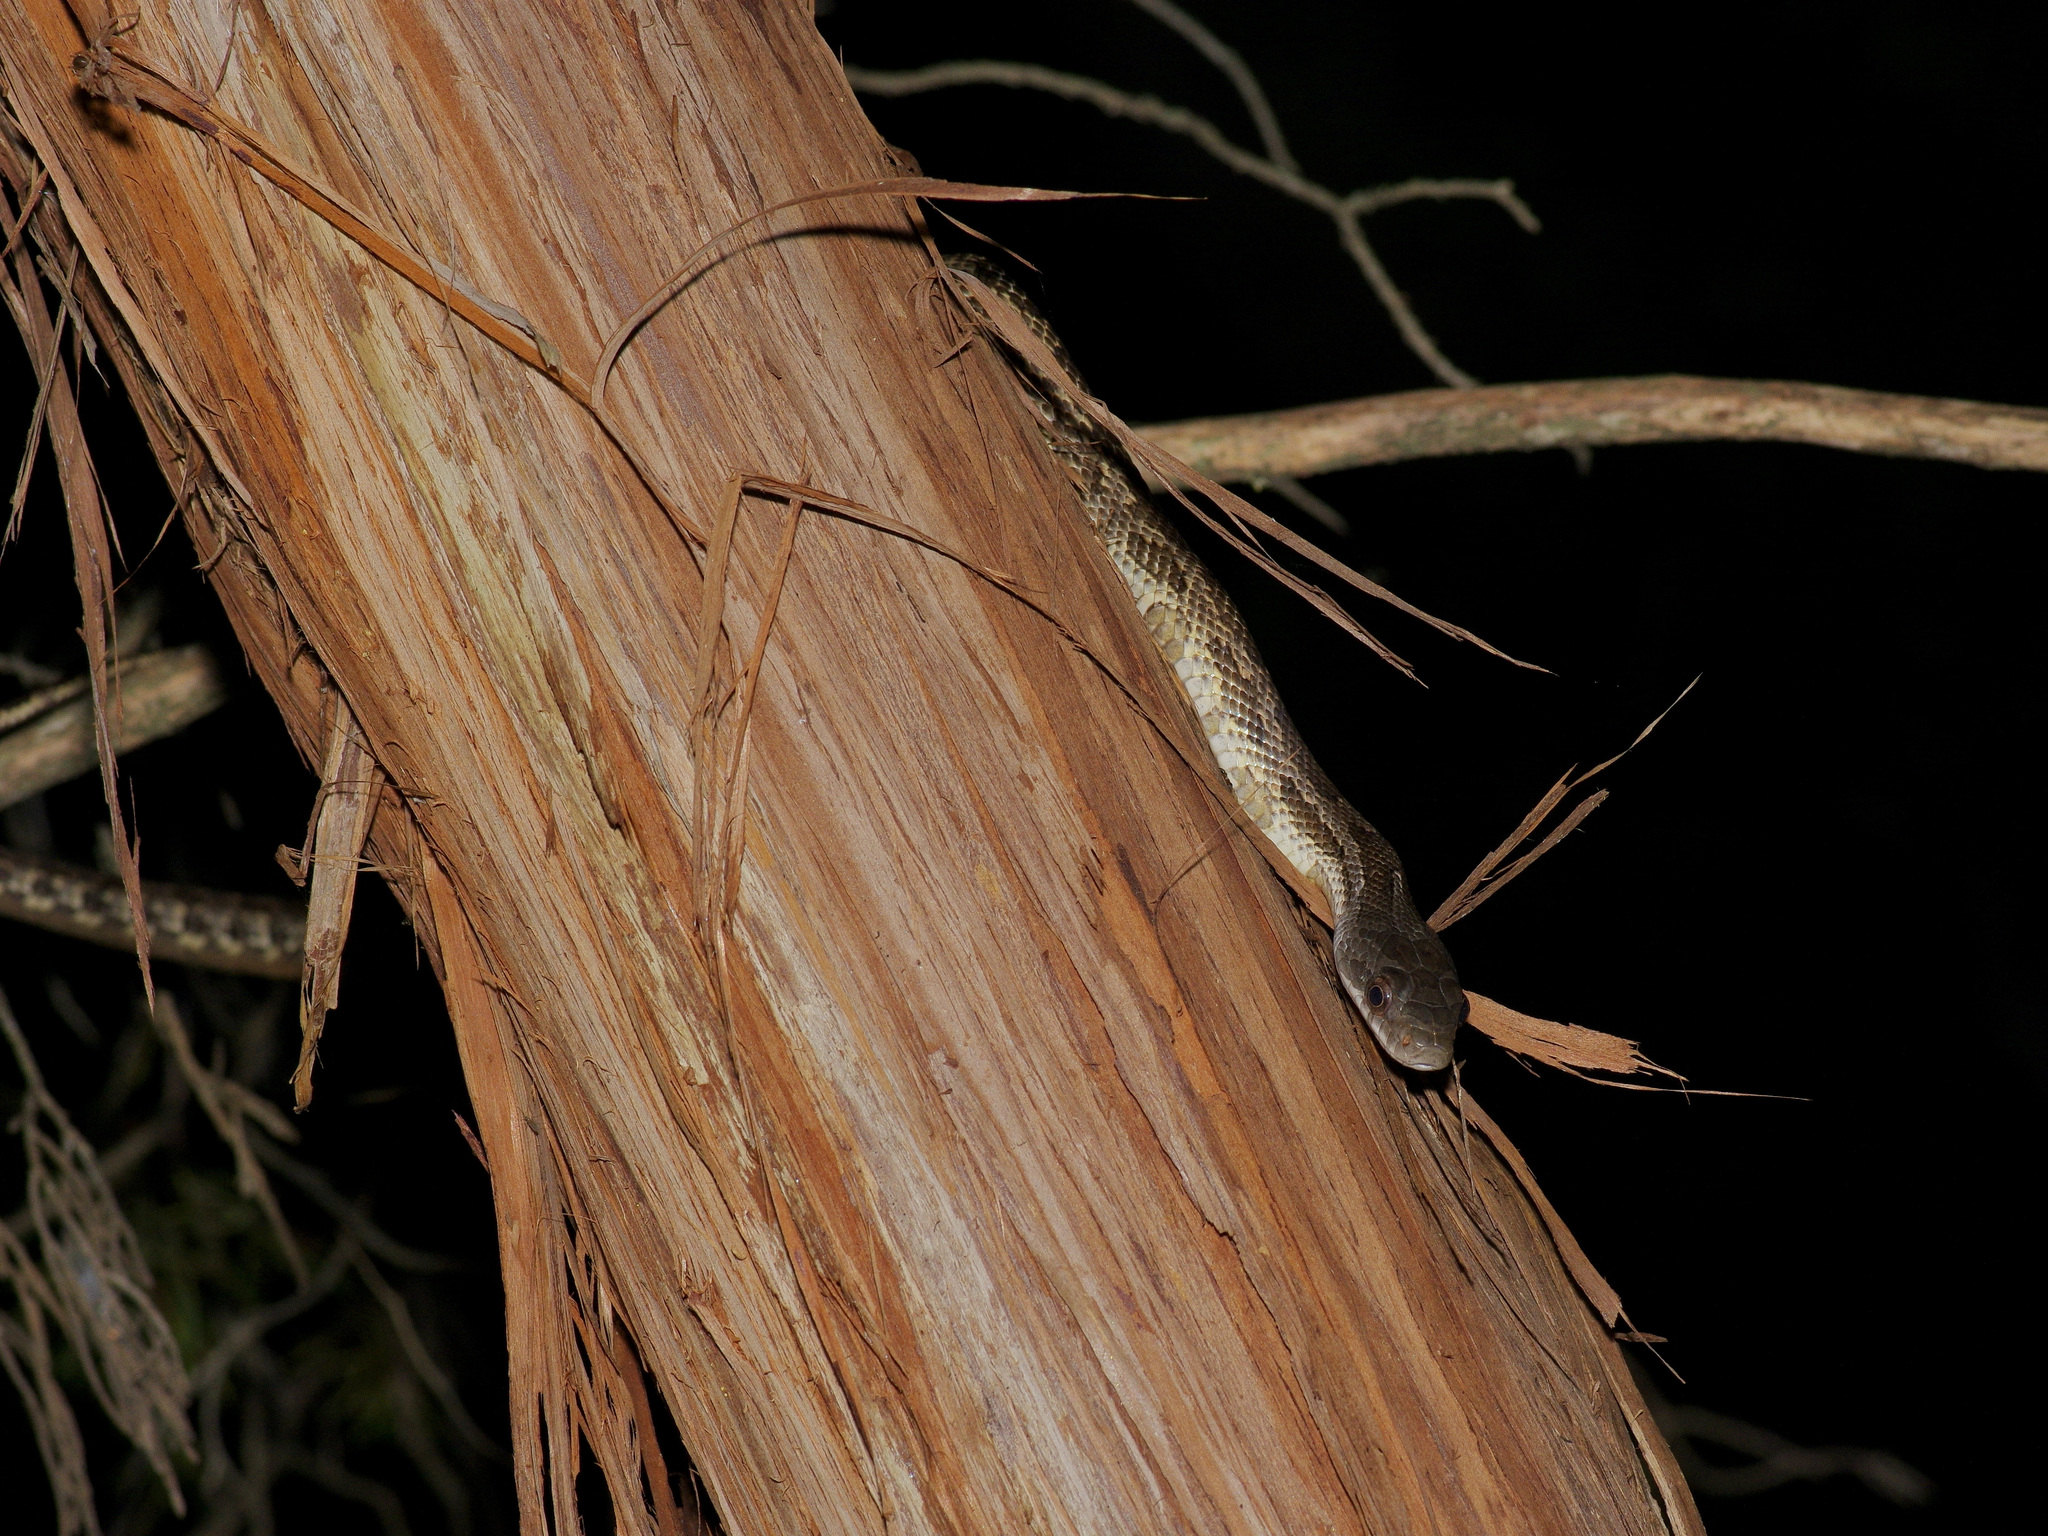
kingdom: Animalia
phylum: Chordata
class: Squamata
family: Colubridae
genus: Pantherophis
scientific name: Pantherophis obsoletus
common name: Black rat snake
